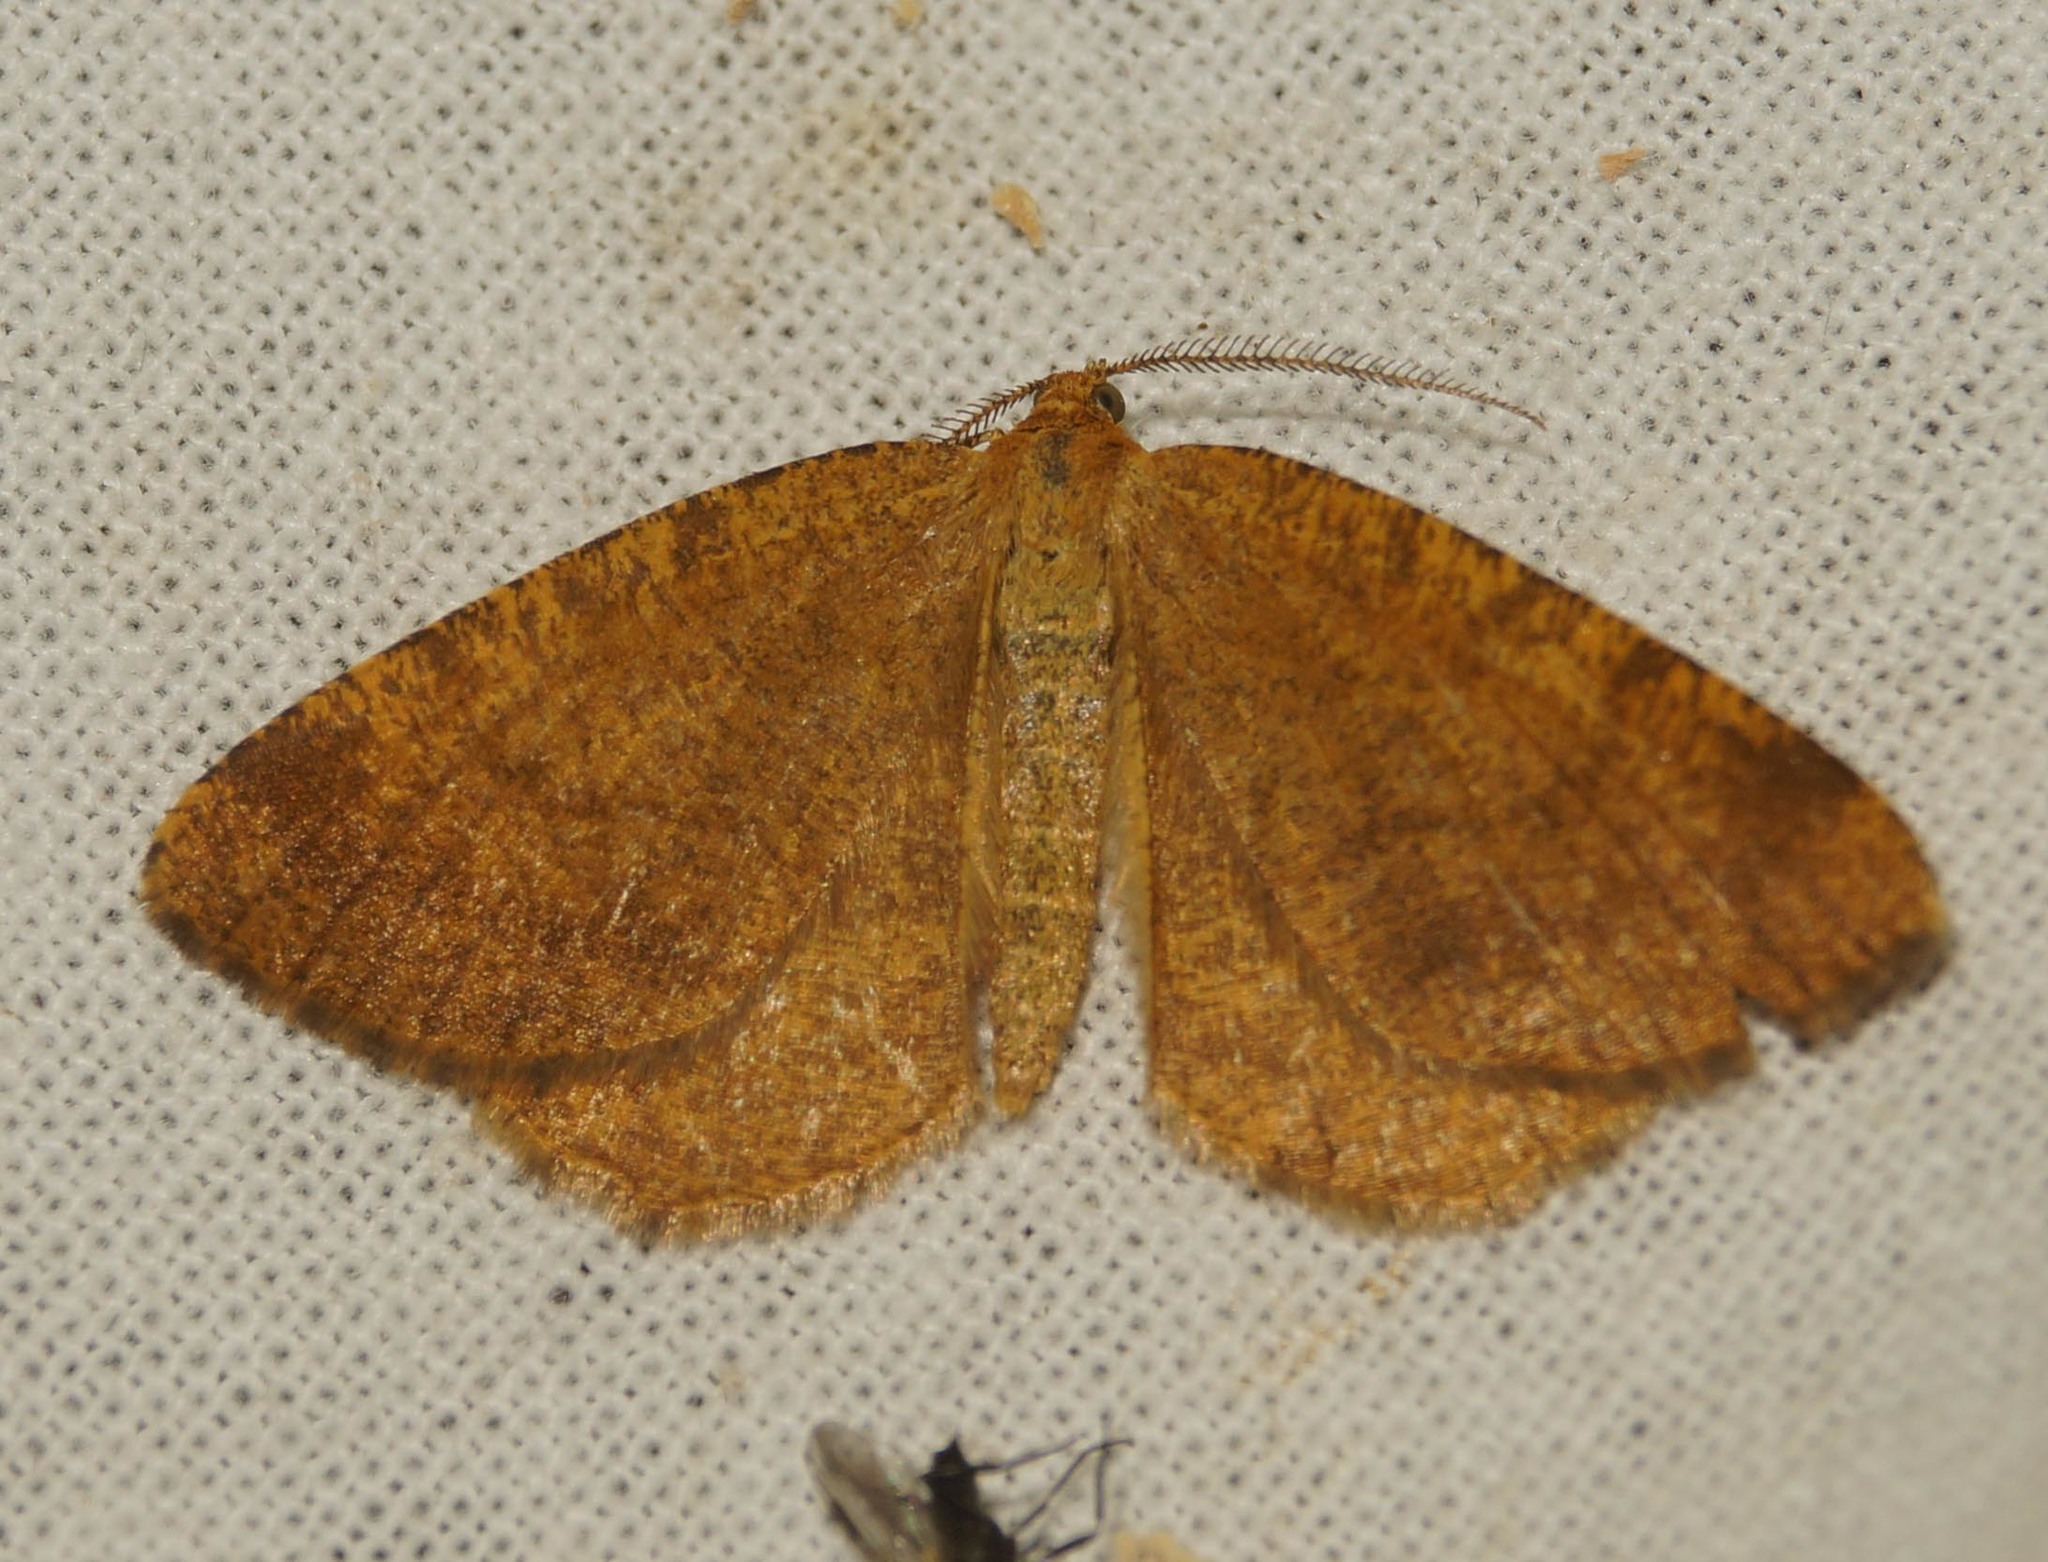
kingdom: Animalia
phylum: Arthropoda
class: Insecta
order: Lepidoptera
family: Geometridae
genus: Macaria
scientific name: Macaria brunneata
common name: Rannoch looper
